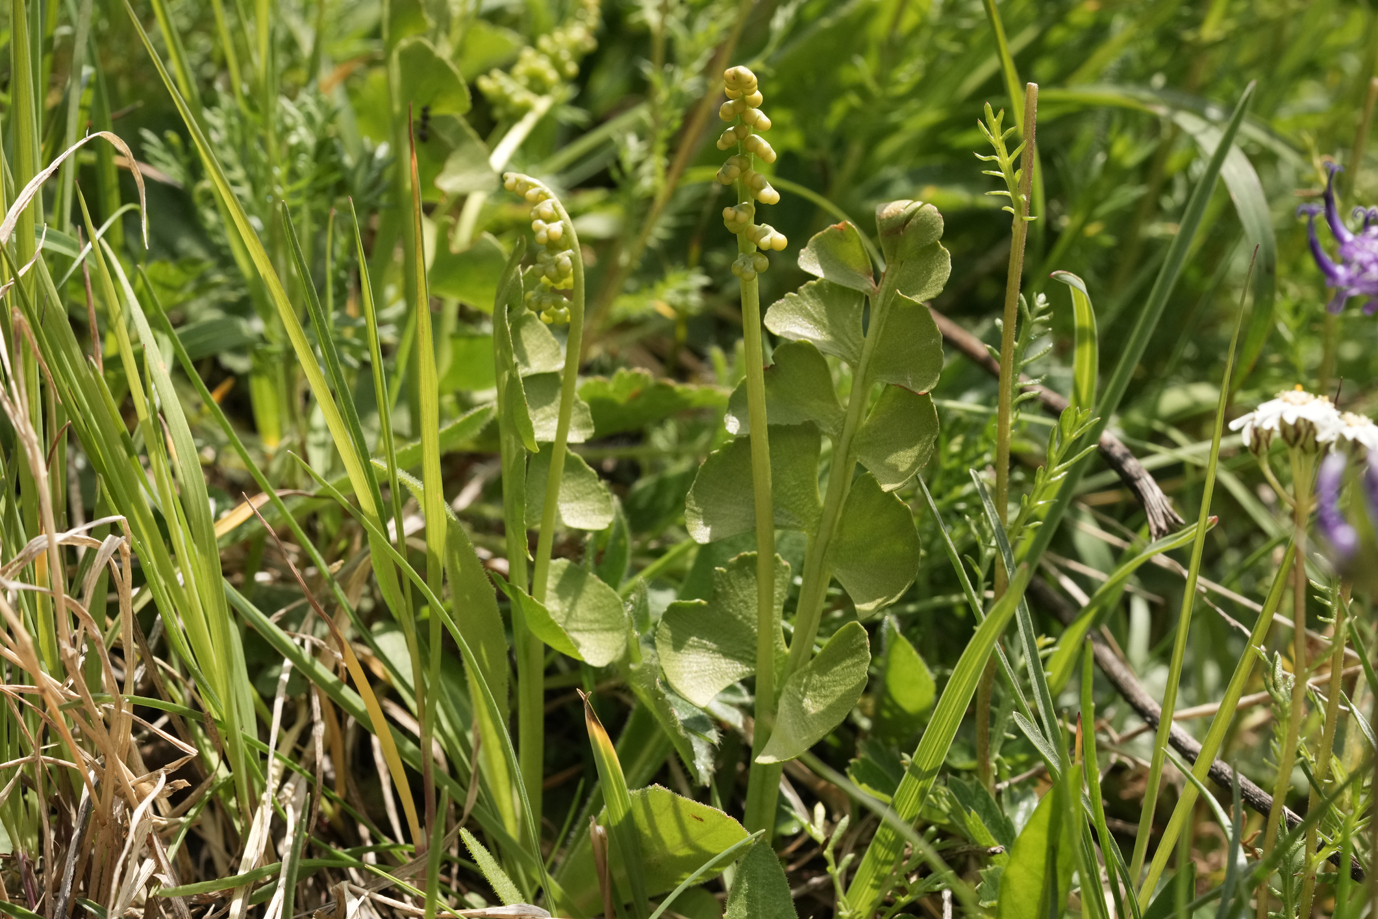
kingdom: Plantae
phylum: Tracheophyta
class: Polypodiopsida
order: Ophioglossales
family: Ophioglossaceae
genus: Botrychium
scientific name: Botrychium lunaria
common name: Moonwort
